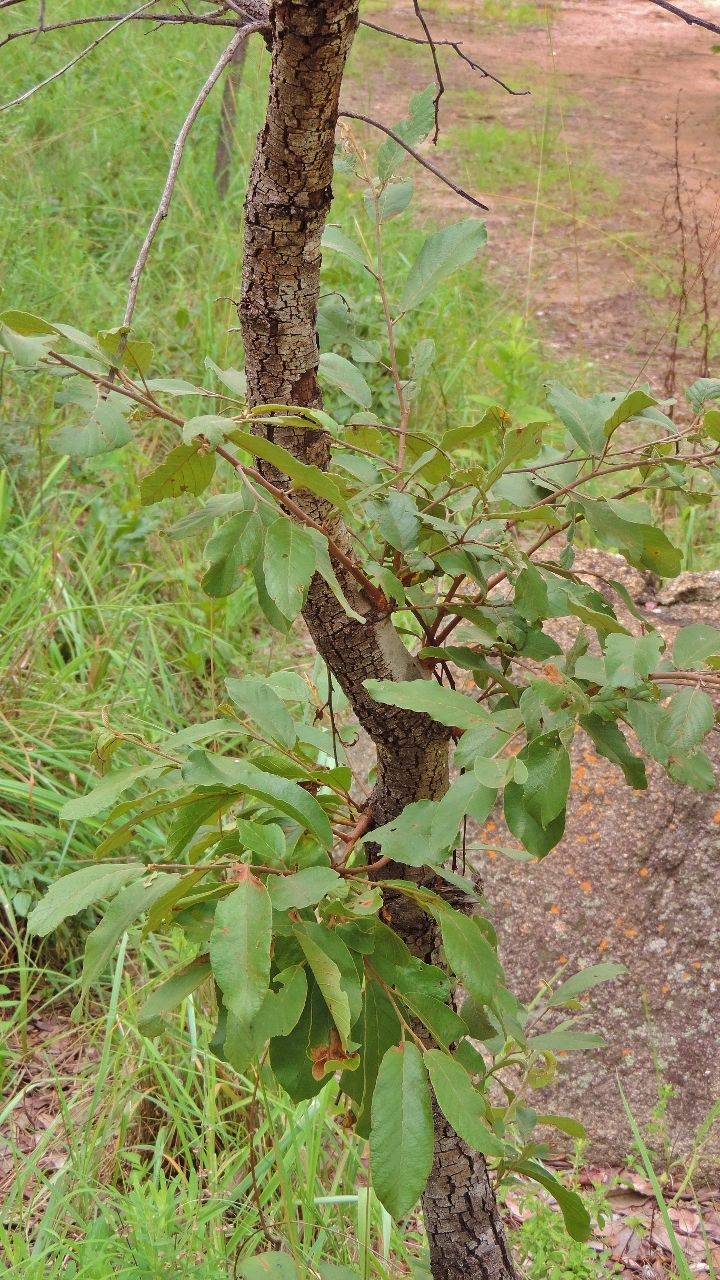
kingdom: Plantae
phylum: Tracheophyta
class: Magnoliopsida
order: Malvales
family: Dipterocarpaceae
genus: Monotes
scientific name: Monotes engleri
